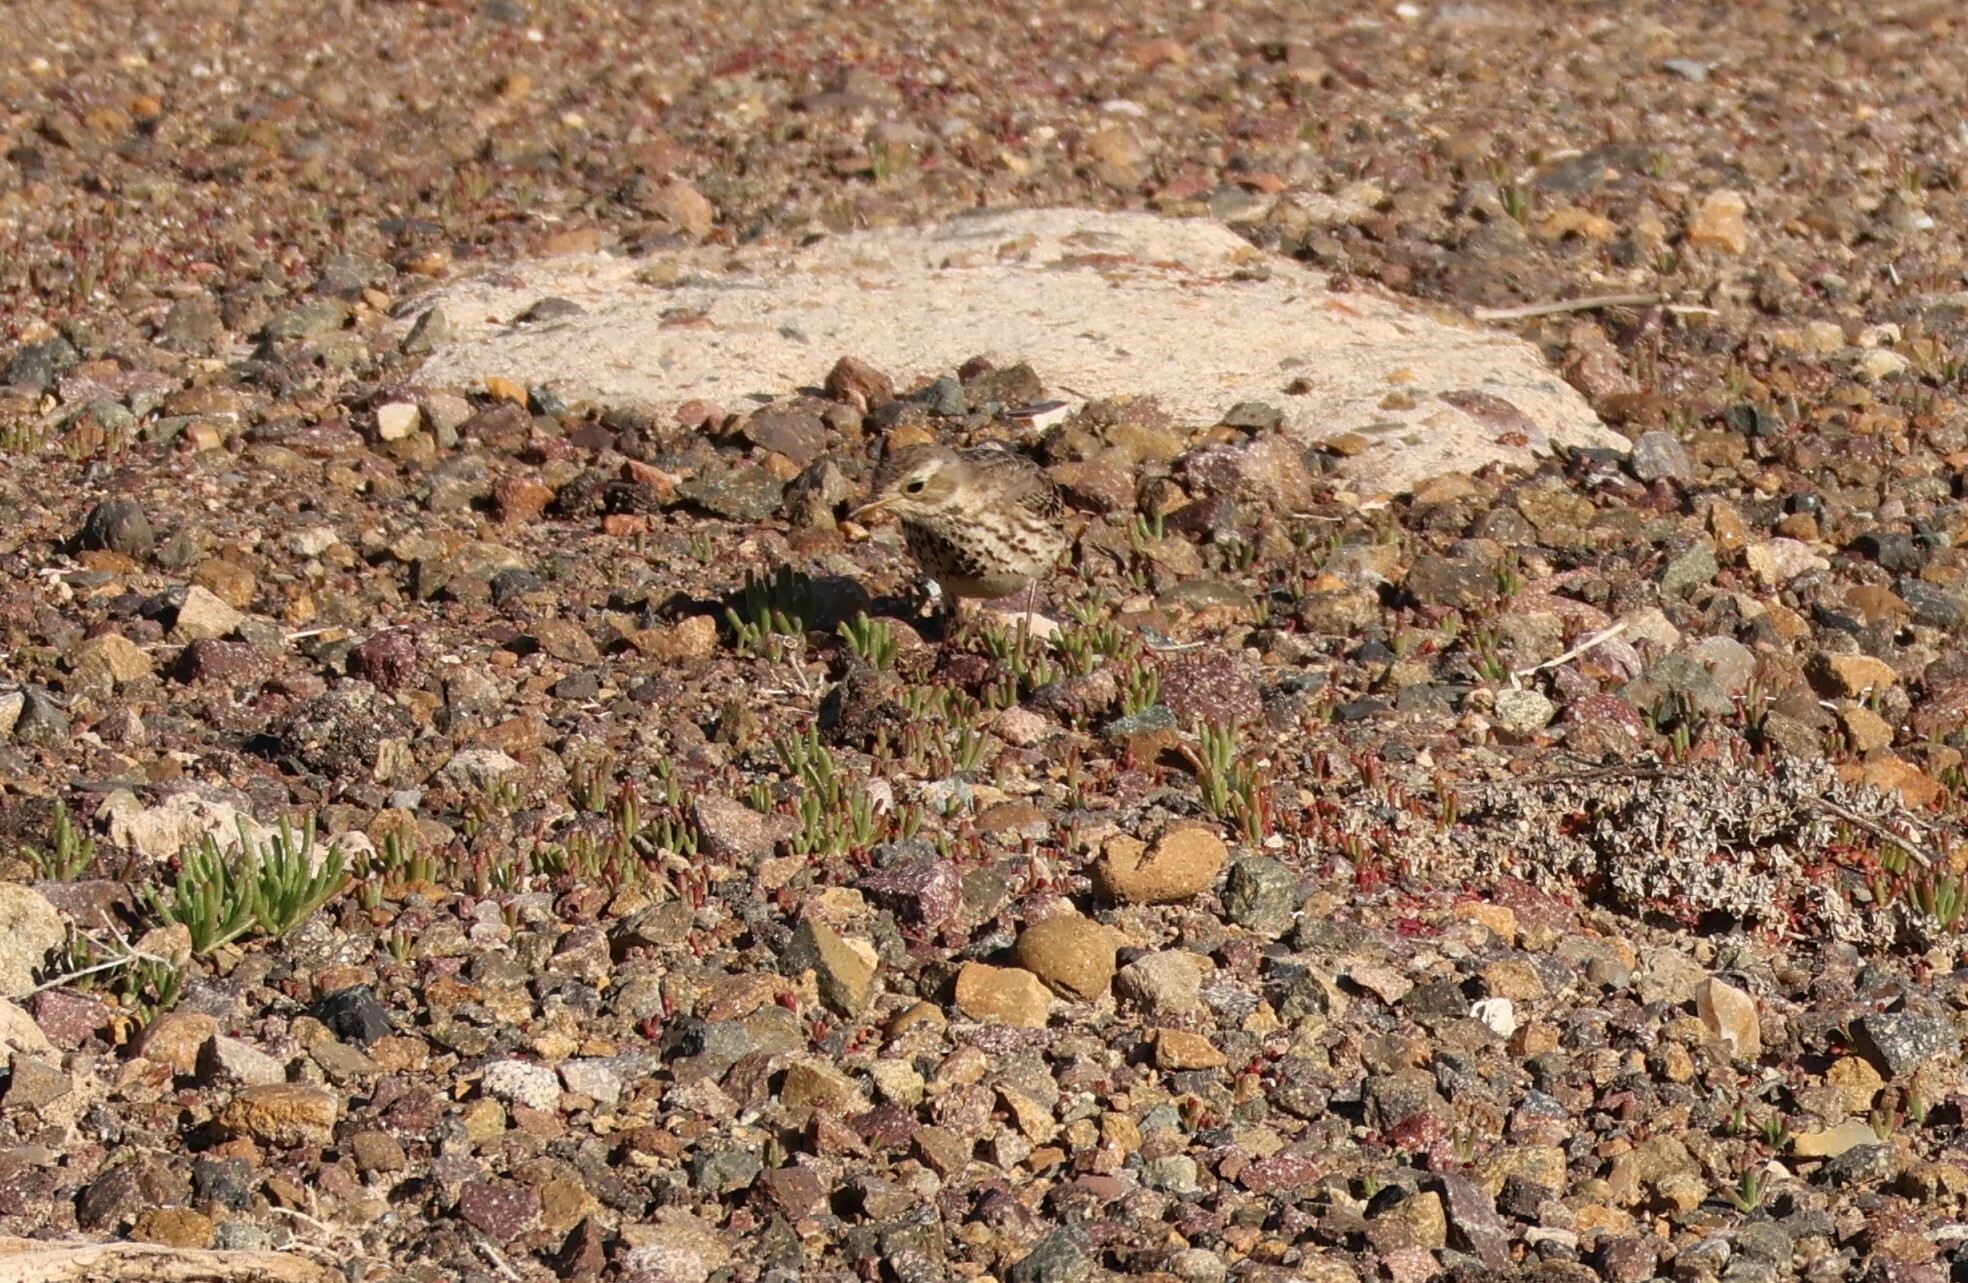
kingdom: Animalia
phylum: Chordata
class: Aves
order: Passeriformes
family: Motacillidae
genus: Anthus
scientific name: Anthus rubescens
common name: Buff-bellied pipit
